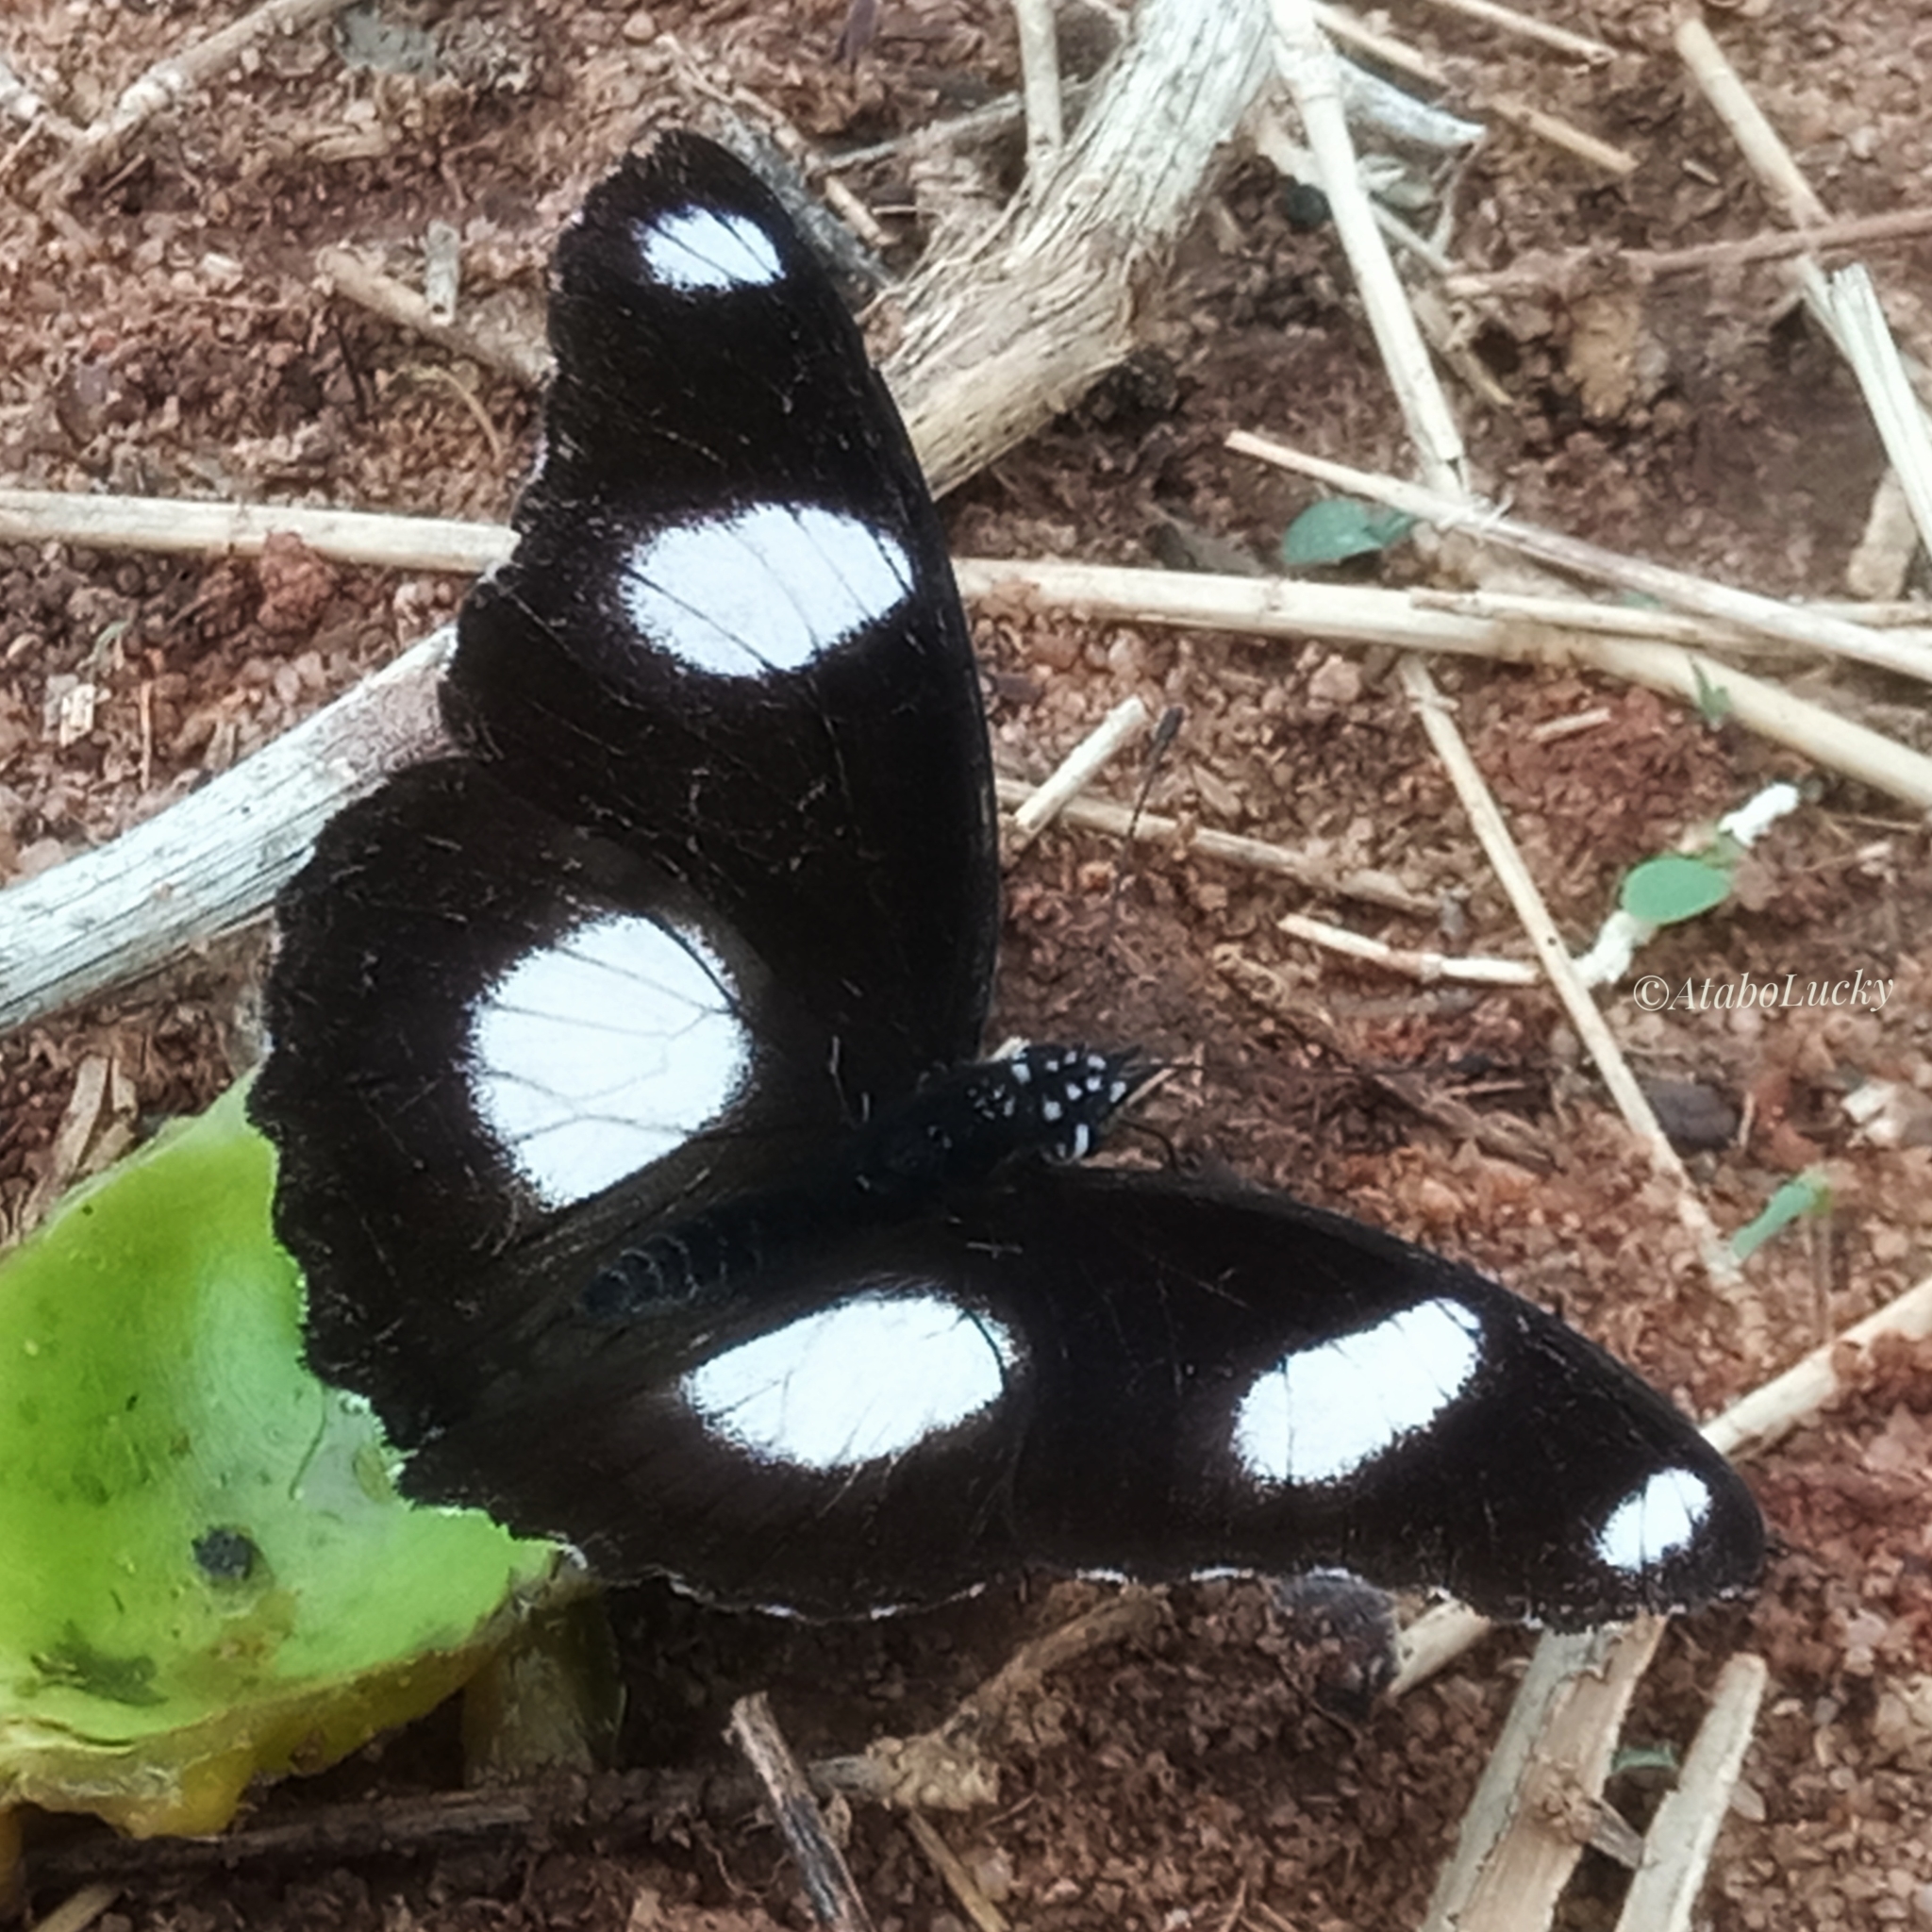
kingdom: Animalia
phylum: Arthropoda
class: Insecta
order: Lepidoptera
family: Nymphalidae
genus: Hypolimnas
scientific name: Hypolimnas misippus
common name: False plain tiger
